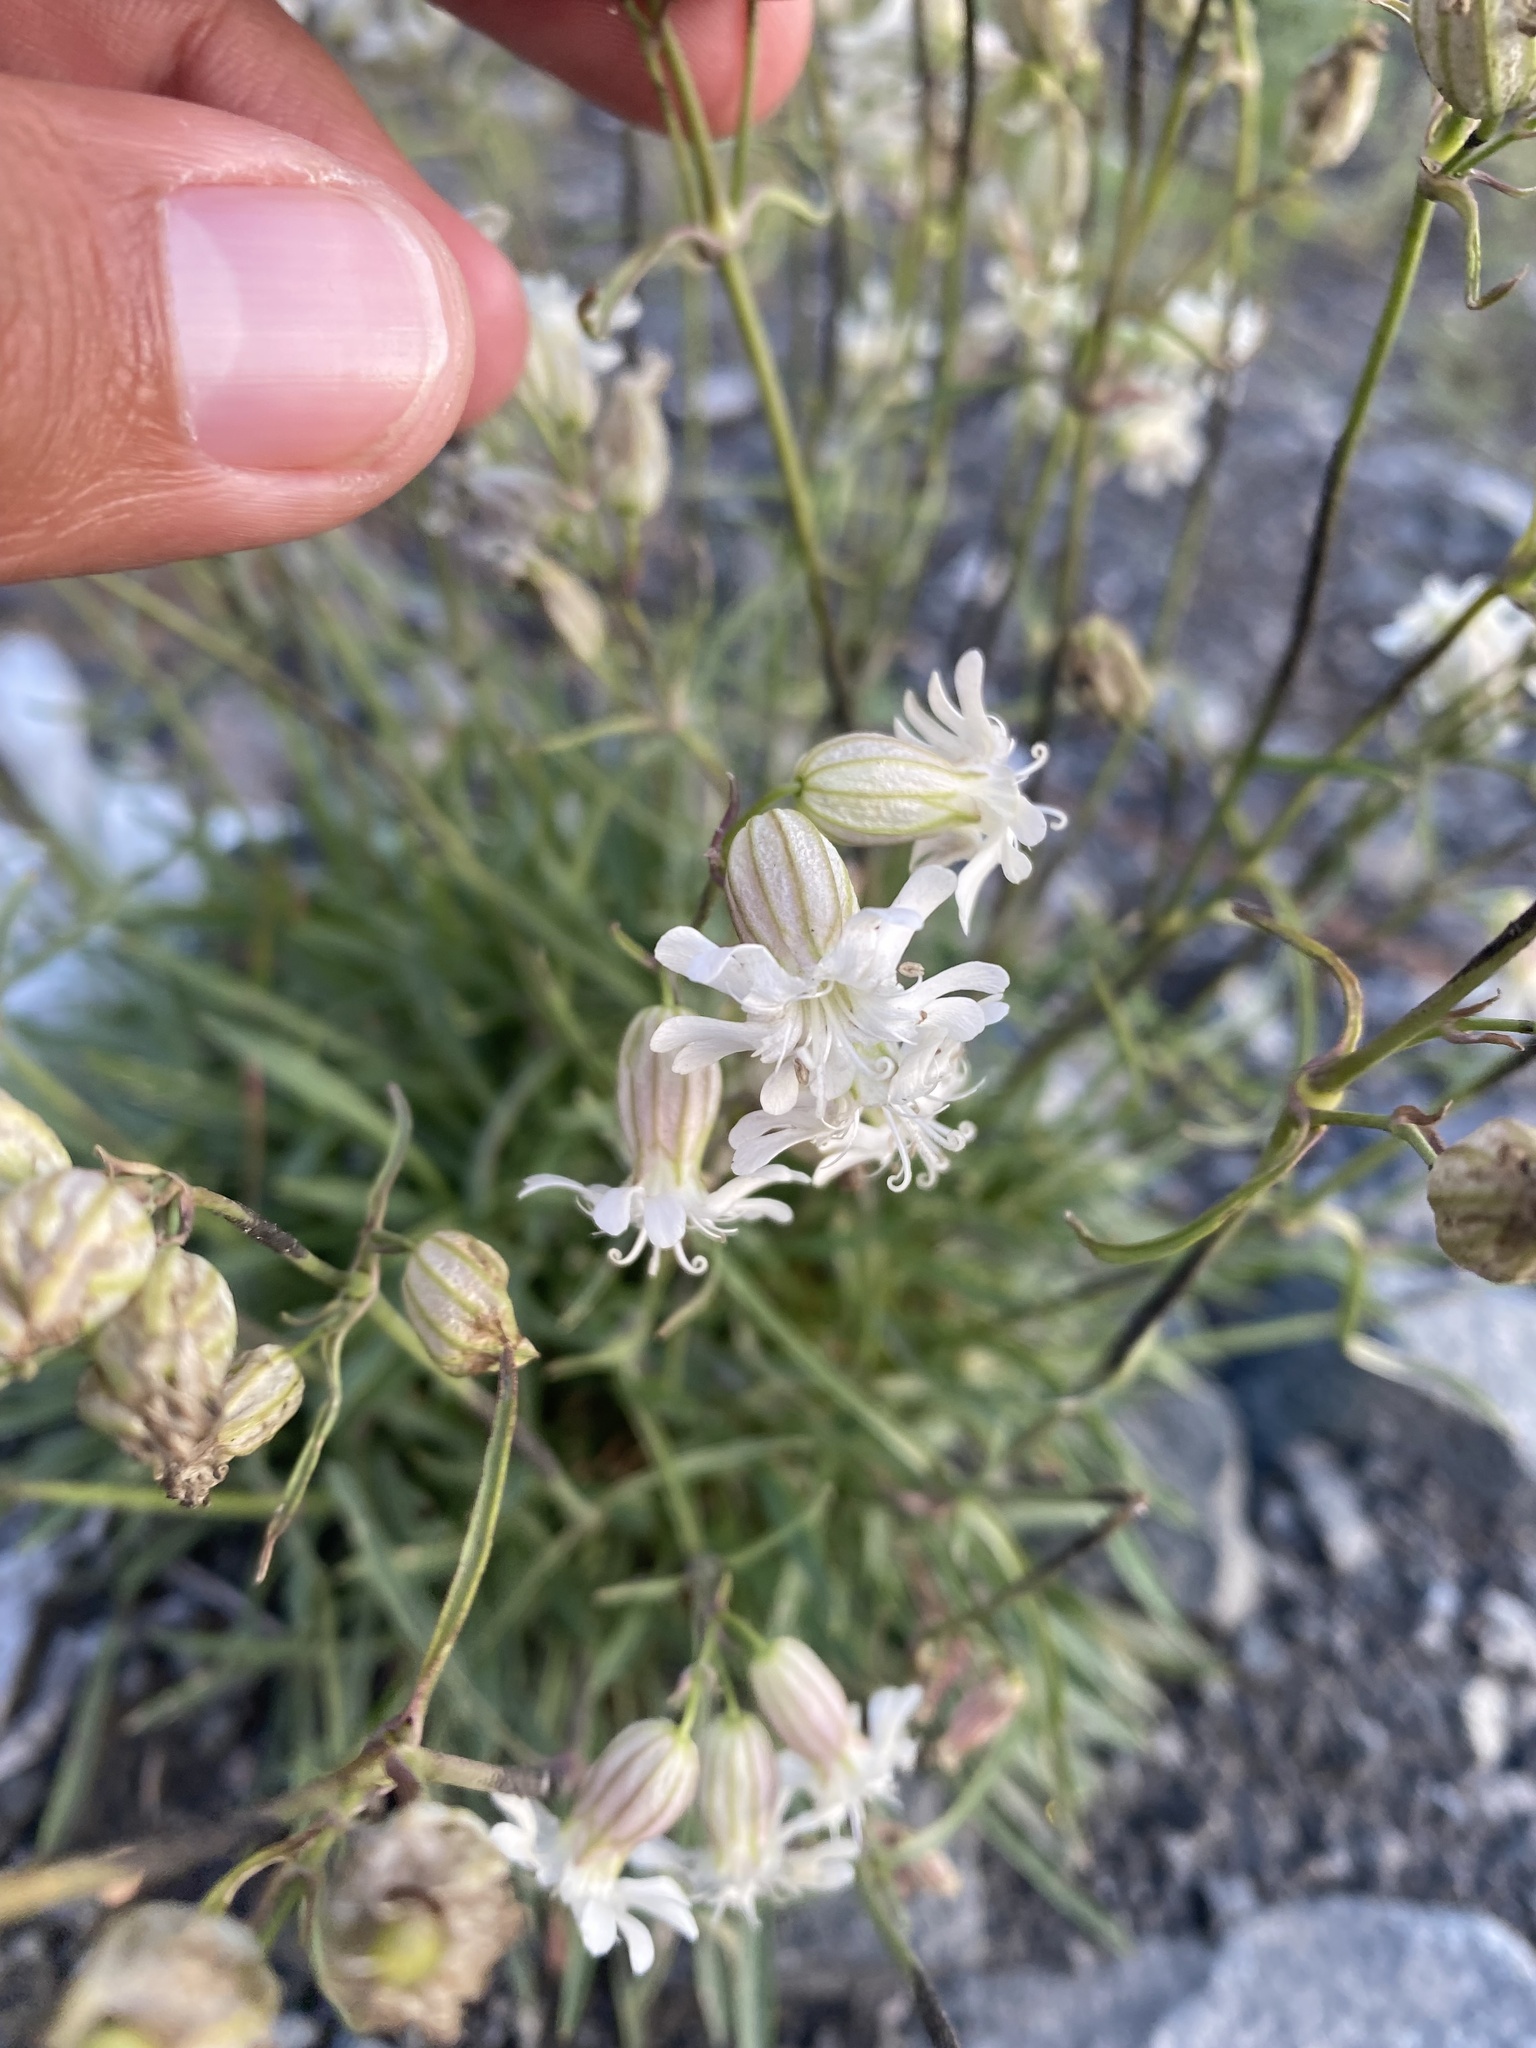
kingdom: Plantae
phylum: Tracheophyta
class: Magnoliopsida
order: Caryophyllales
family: Caryophyllaceae
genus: Silene
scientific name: Silene wahlbergella
